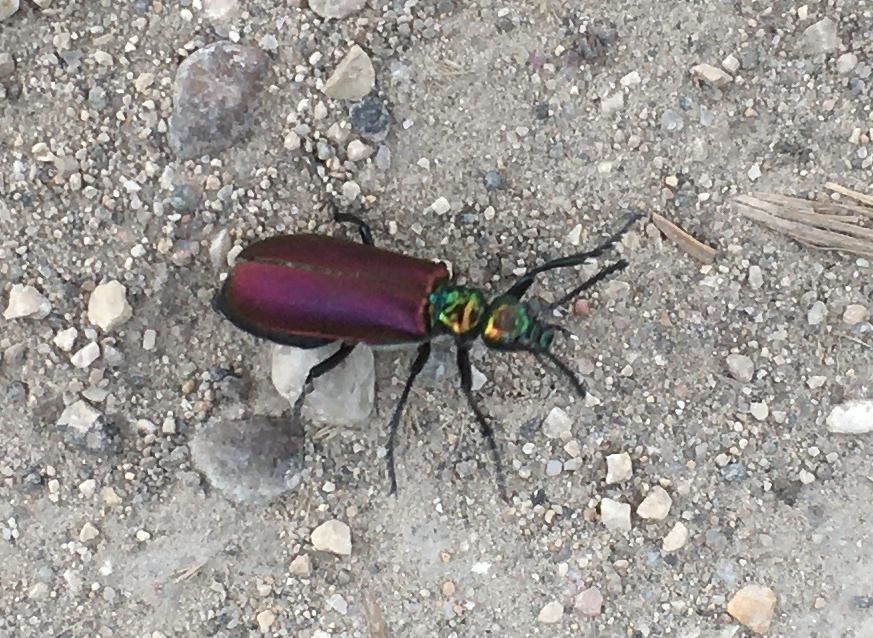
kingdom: Animalia
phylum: Arthropoda
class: Insecta
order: Coleoptera
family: Meloidae
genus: Lytta
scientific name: Lytta nuttallii
